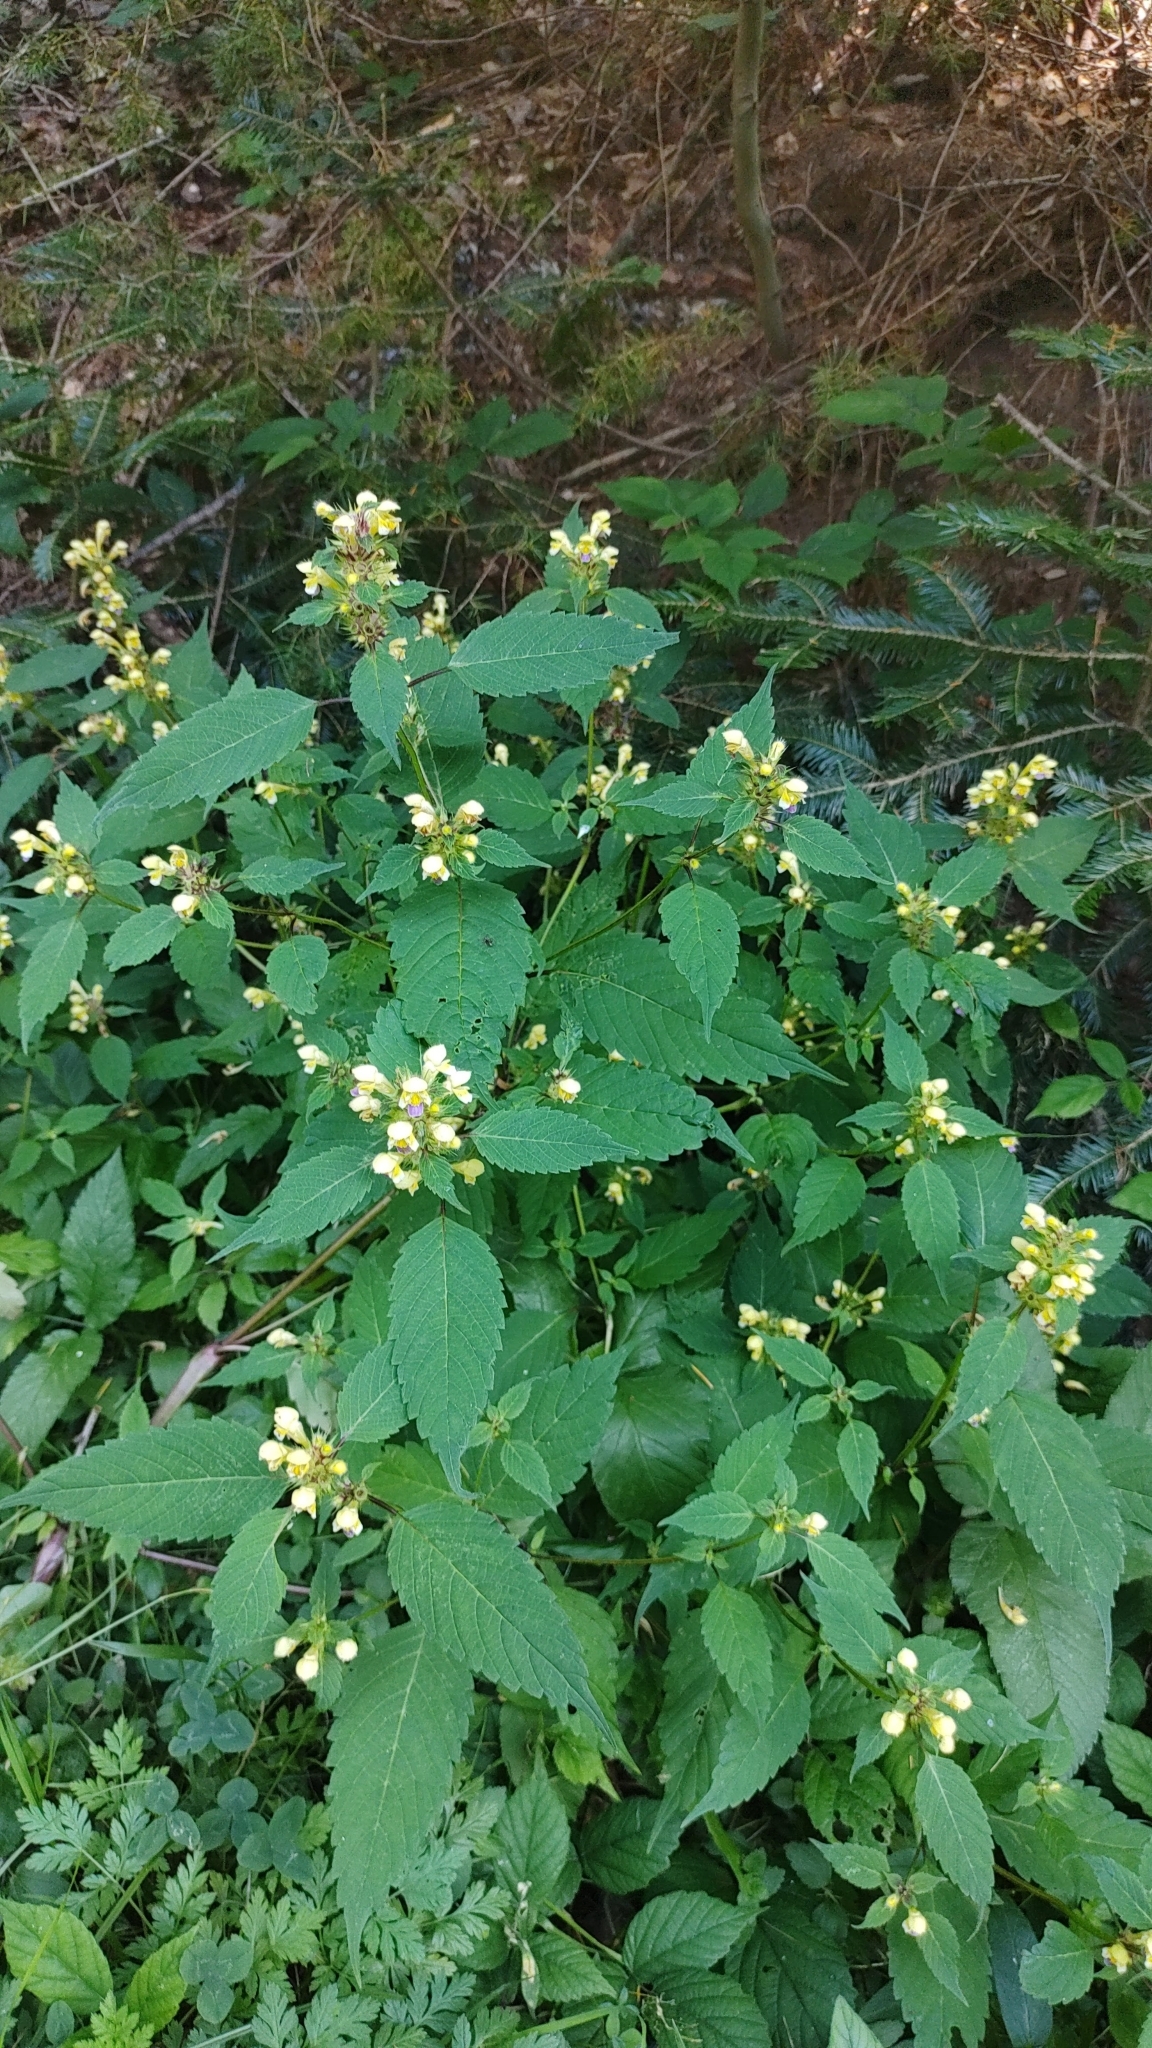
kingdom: Plantae
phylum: Tracheophyta
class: Magnoliopsida
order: Lamiales
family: Lamiaceae
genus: Galeopsis
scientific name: Galeopsis speciosa
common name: Large-flowered hemp-nettle
